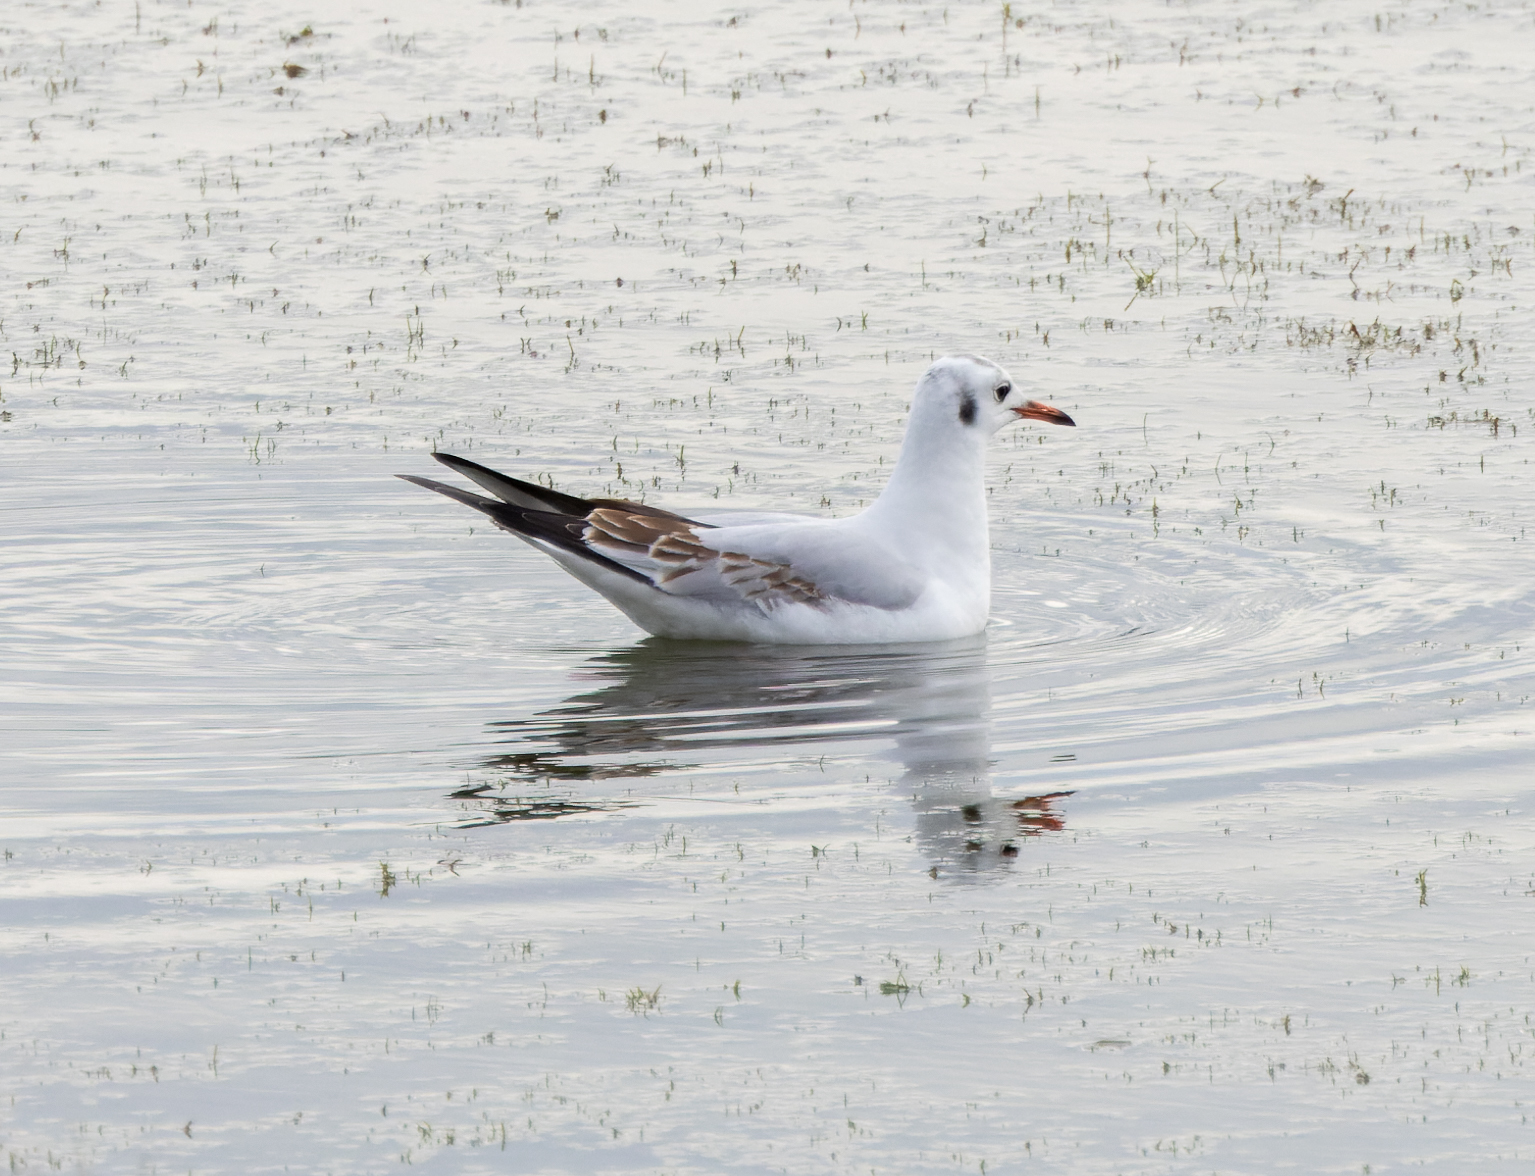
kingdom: Animalia
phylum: Chordata
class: Aves
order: Charadriiformes
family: Laridae
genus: Chroicocephalus
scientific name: Chroicocephalus ridibundus
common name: Black-headed gull
